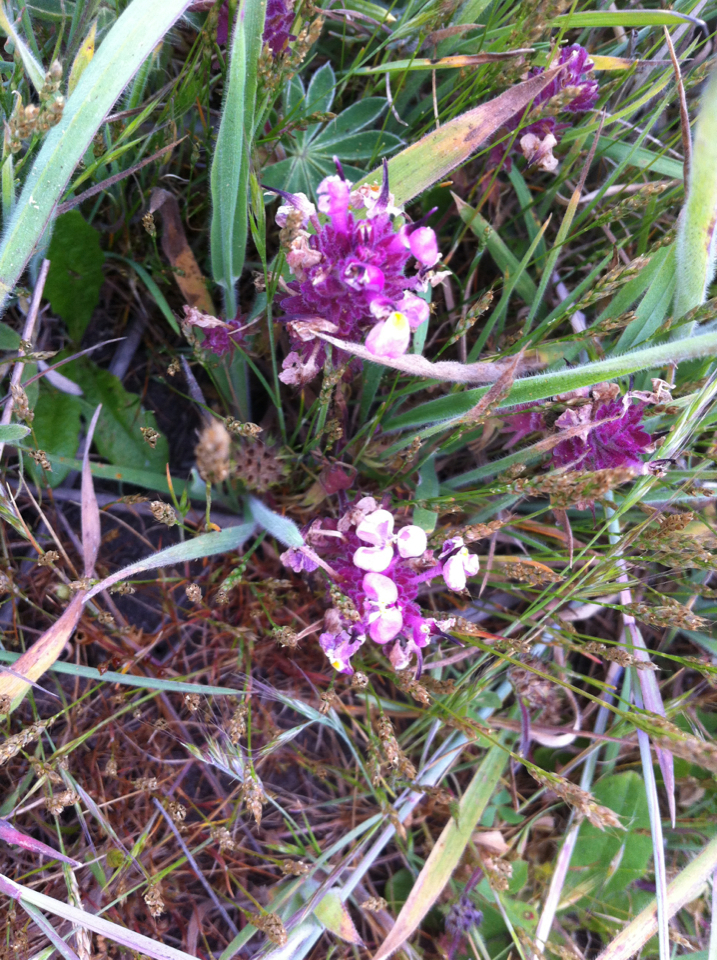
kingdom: Plantae
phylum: Tracheophyta
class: Magnoliopsida
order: Lamiales
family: Orobanchaceae
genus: Triphysaria
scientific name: Triphysaria eriantha
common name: Johnny-tuck
